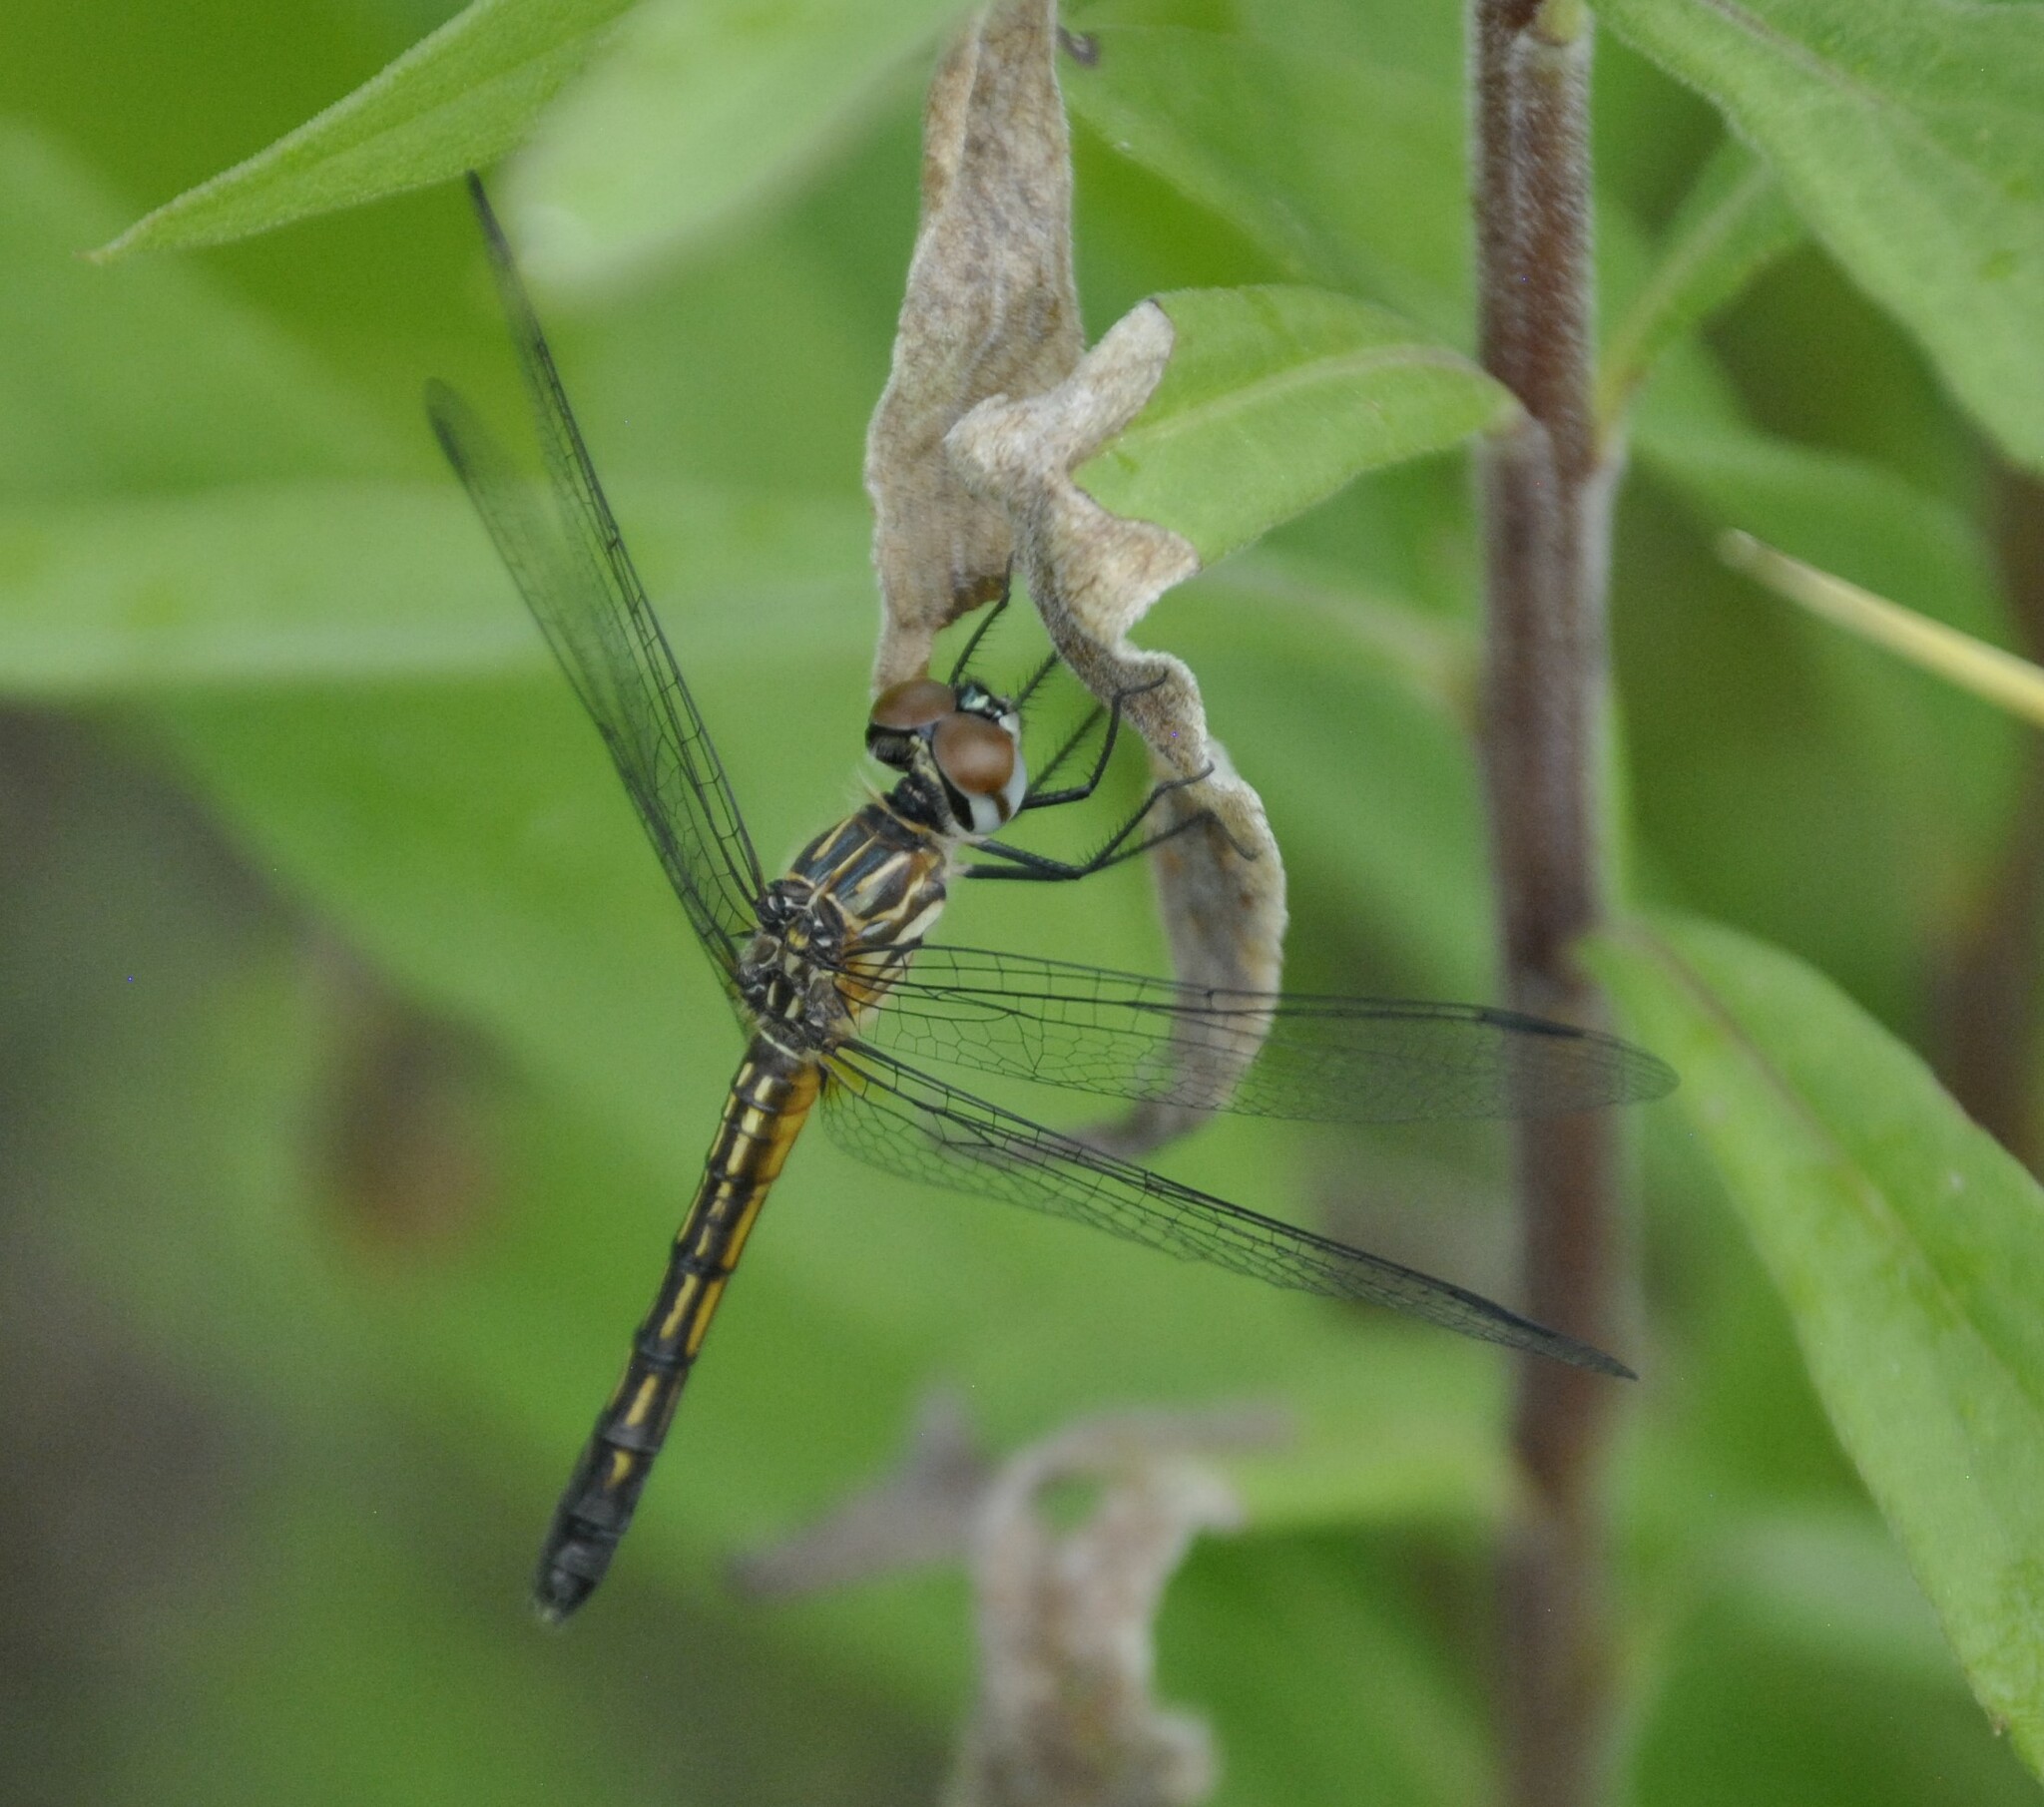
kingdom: Animalia
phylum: Arthropoda
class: Insecta
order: Odonata
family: Libellulidae
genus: Pachydiplax
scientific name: Pachydiplax longipennis
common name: Blue dasher
